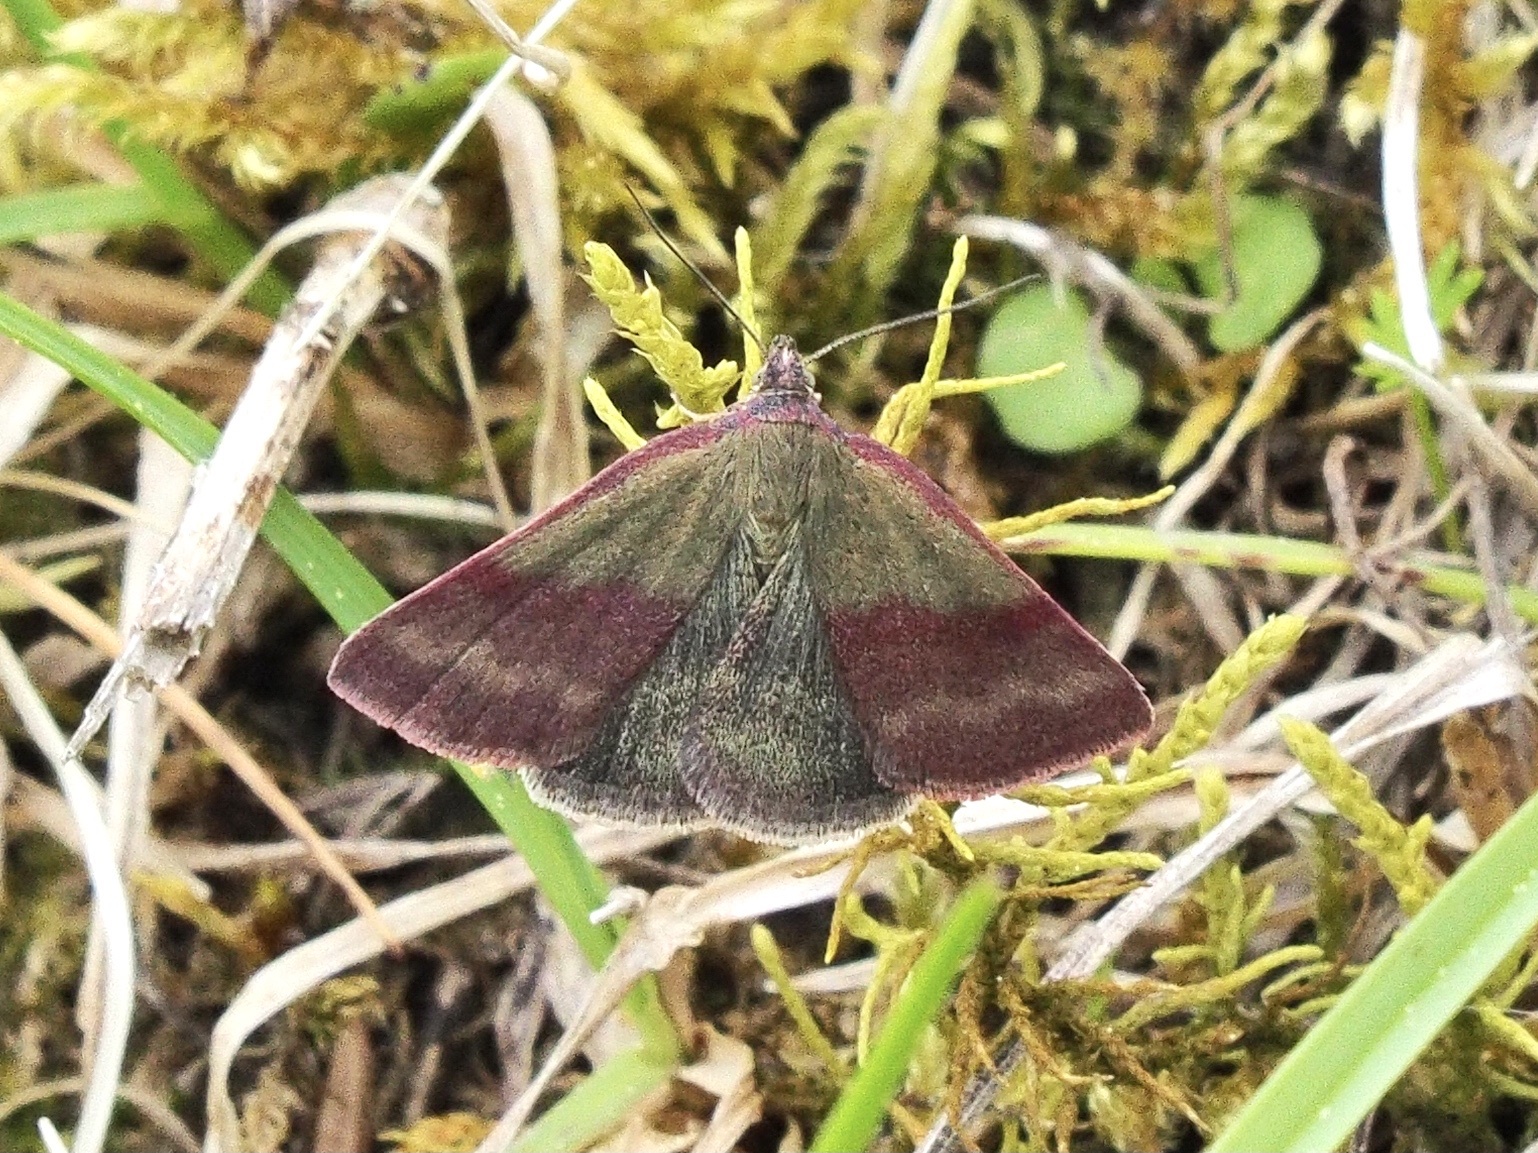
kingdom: Animalia
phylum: Arthropoda
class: Insecta
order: Lepidoptera
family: Erebidae
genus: Phytometra
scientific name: Phytometra viridaria
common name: Small purple-barred
